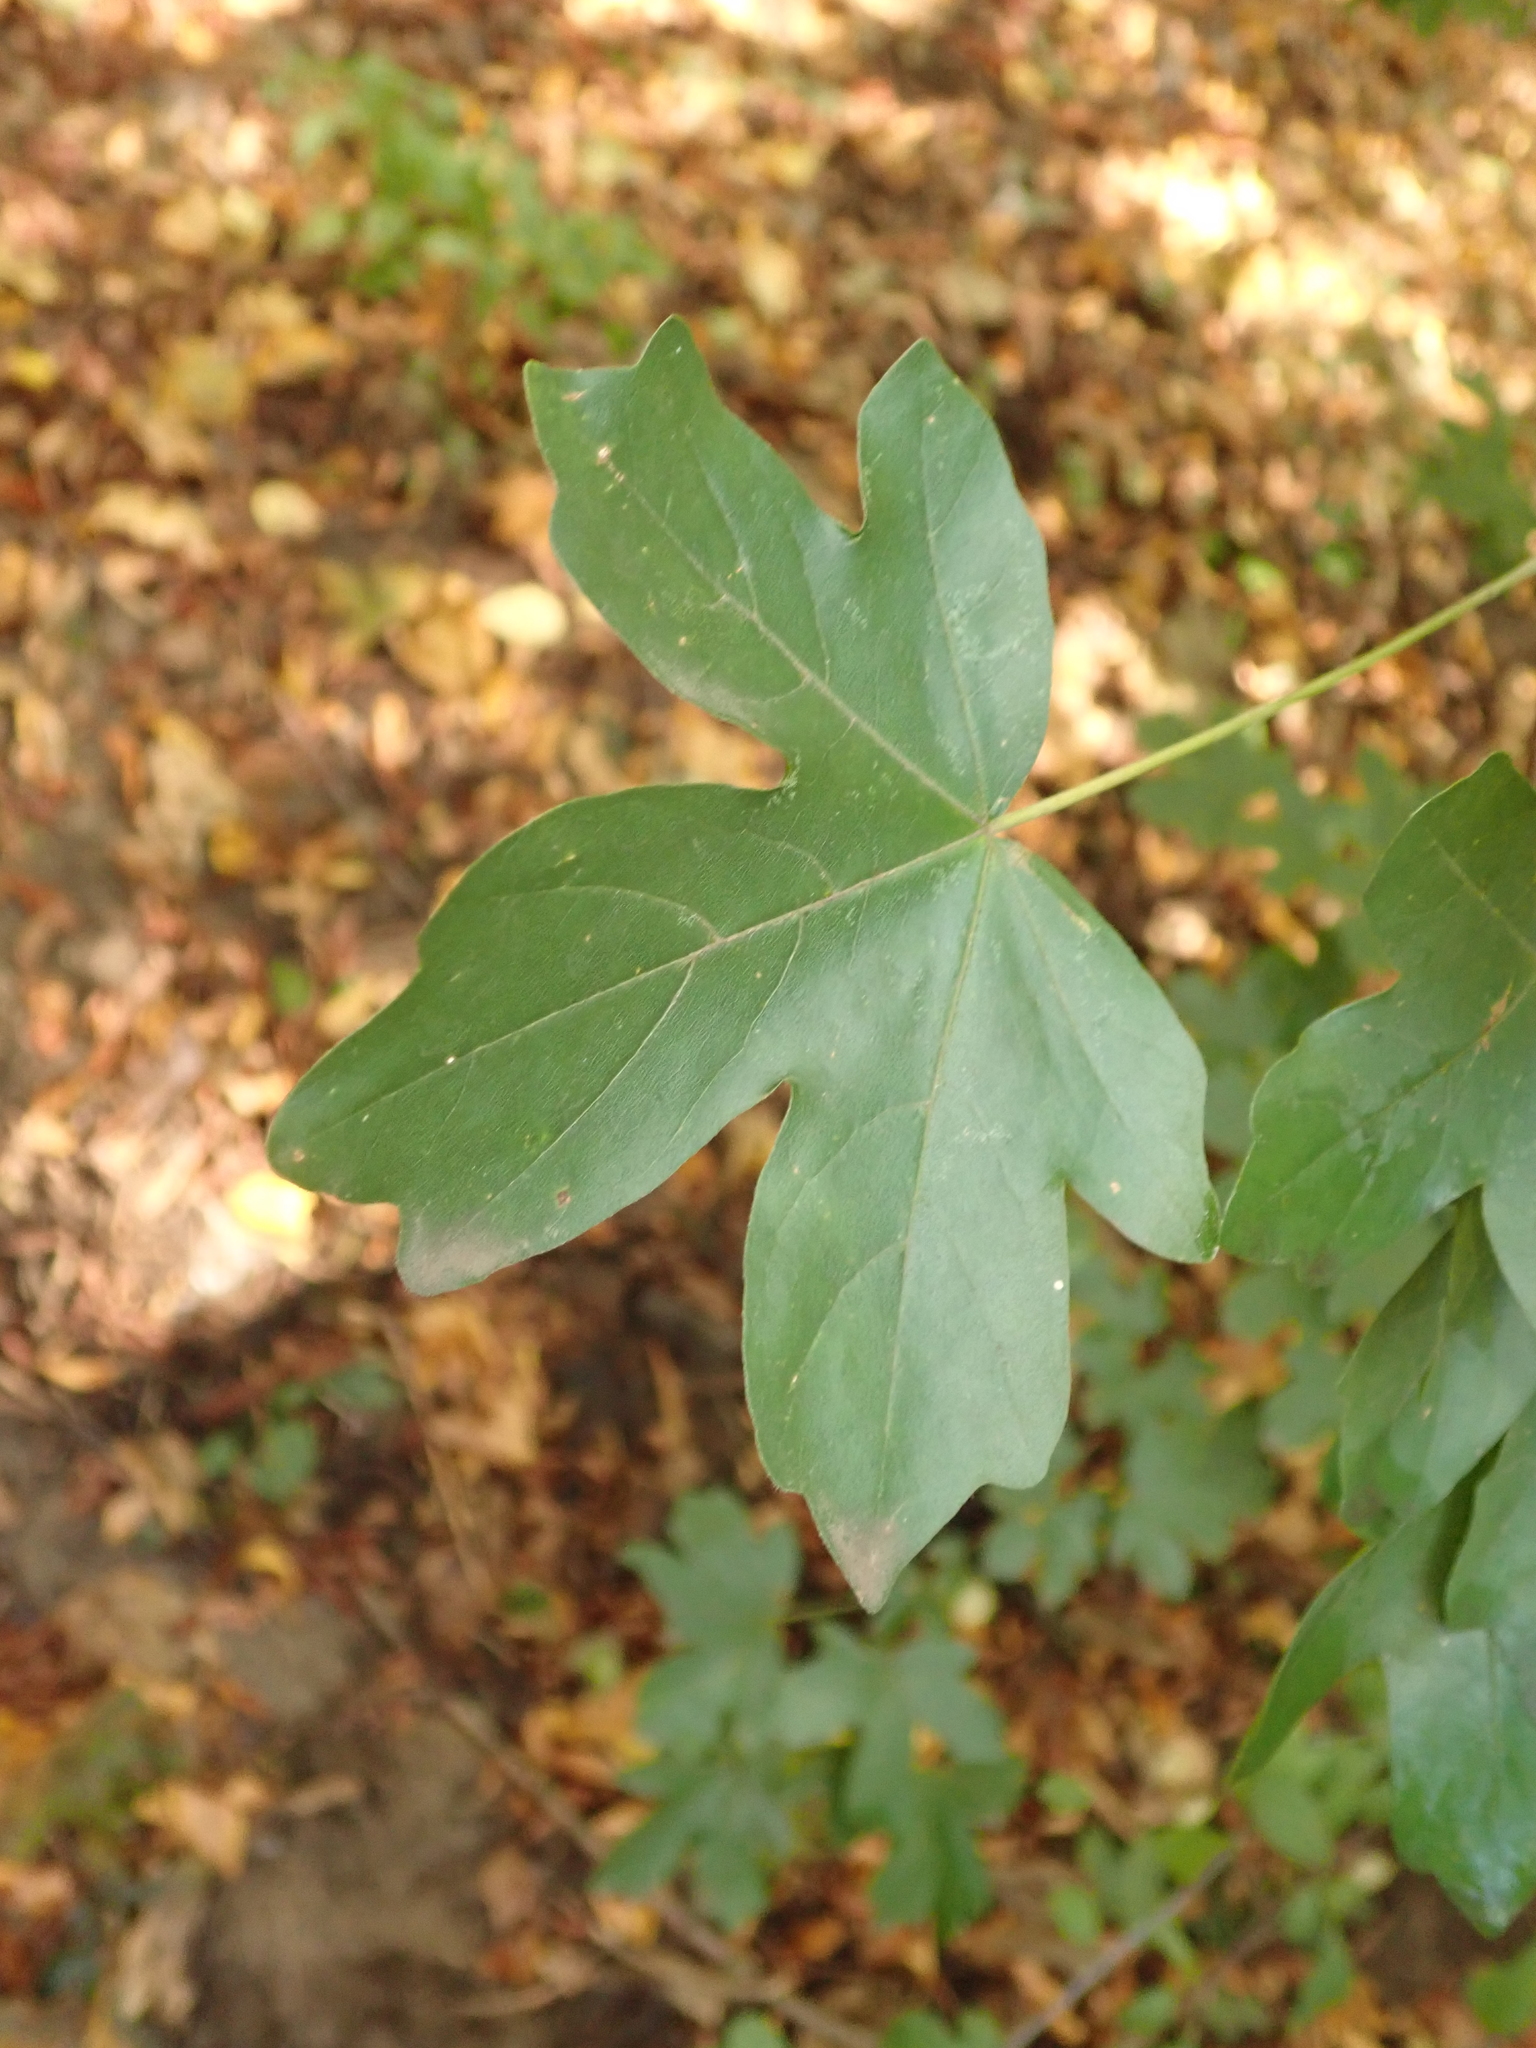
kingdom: Plantae
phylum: Tracheophyta
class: Magnoliopsida
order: Sapindales
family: Sapindaceae
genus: Acer
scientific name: Acer campestre
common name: Field maple
